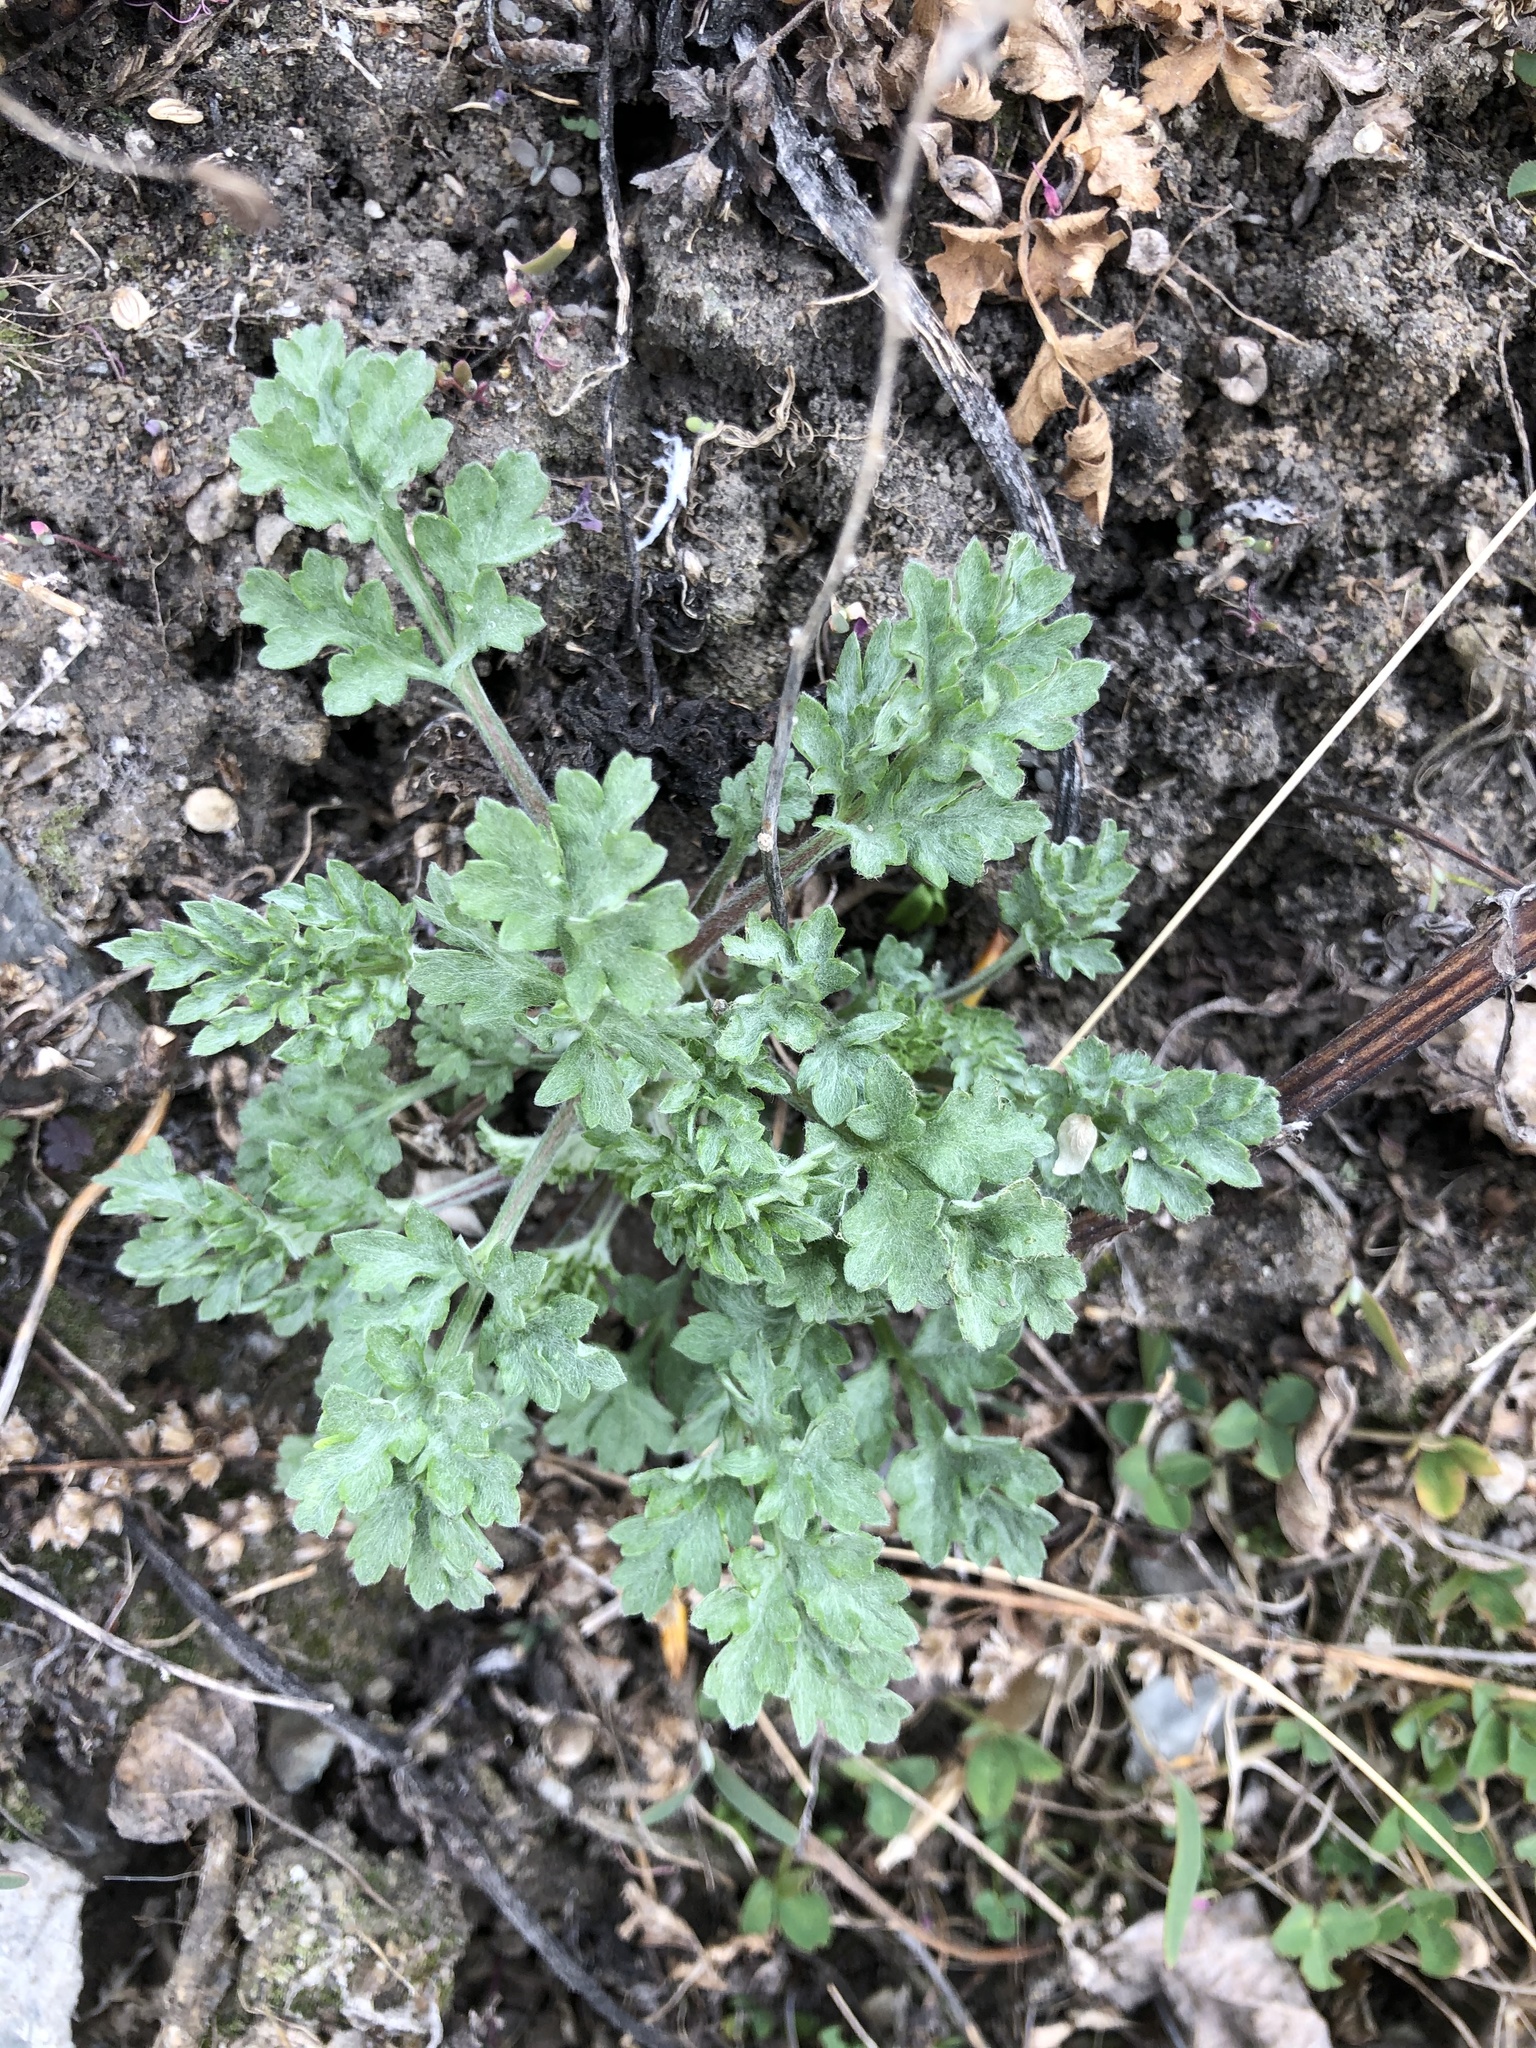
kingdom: Plantae
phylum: Tracheophyta
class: Magnoliopsida
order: Asterales
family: Asteraceae
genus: Artemisia
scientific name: Artemisia vulgaris
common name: Mugwort
